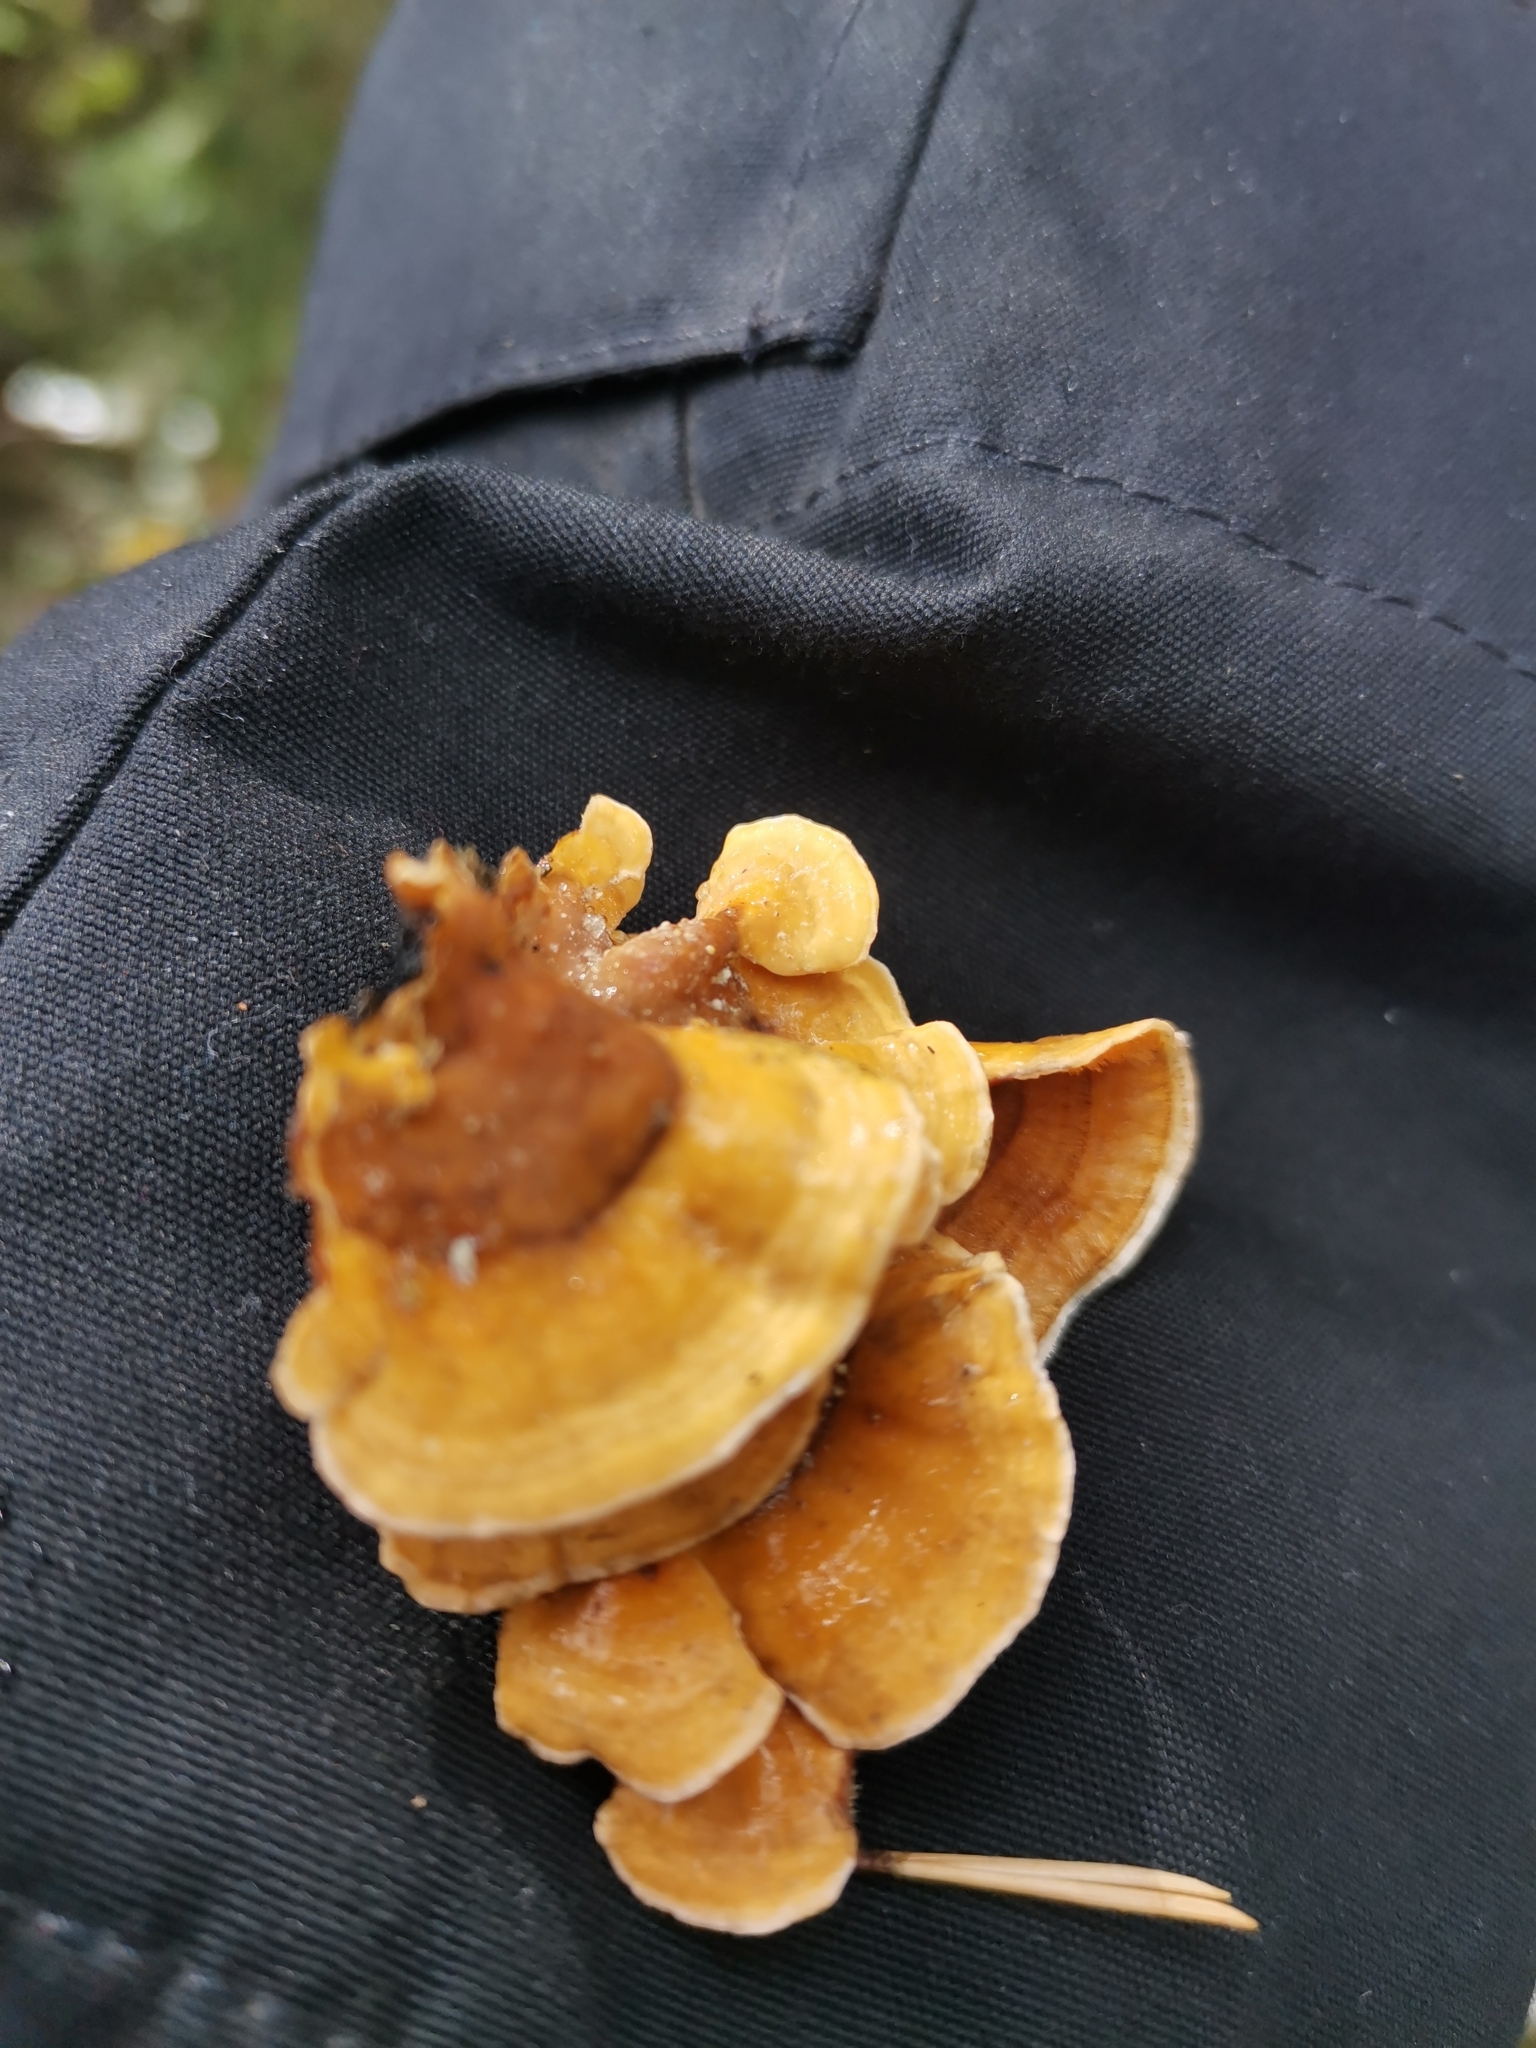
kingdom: Fungi
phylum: Basidiomycota
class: Agaricomycetes
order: Russulales
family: Stereaceae
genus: Stereum
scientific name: Stereum hirsutum
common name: Hairy curtain crust
